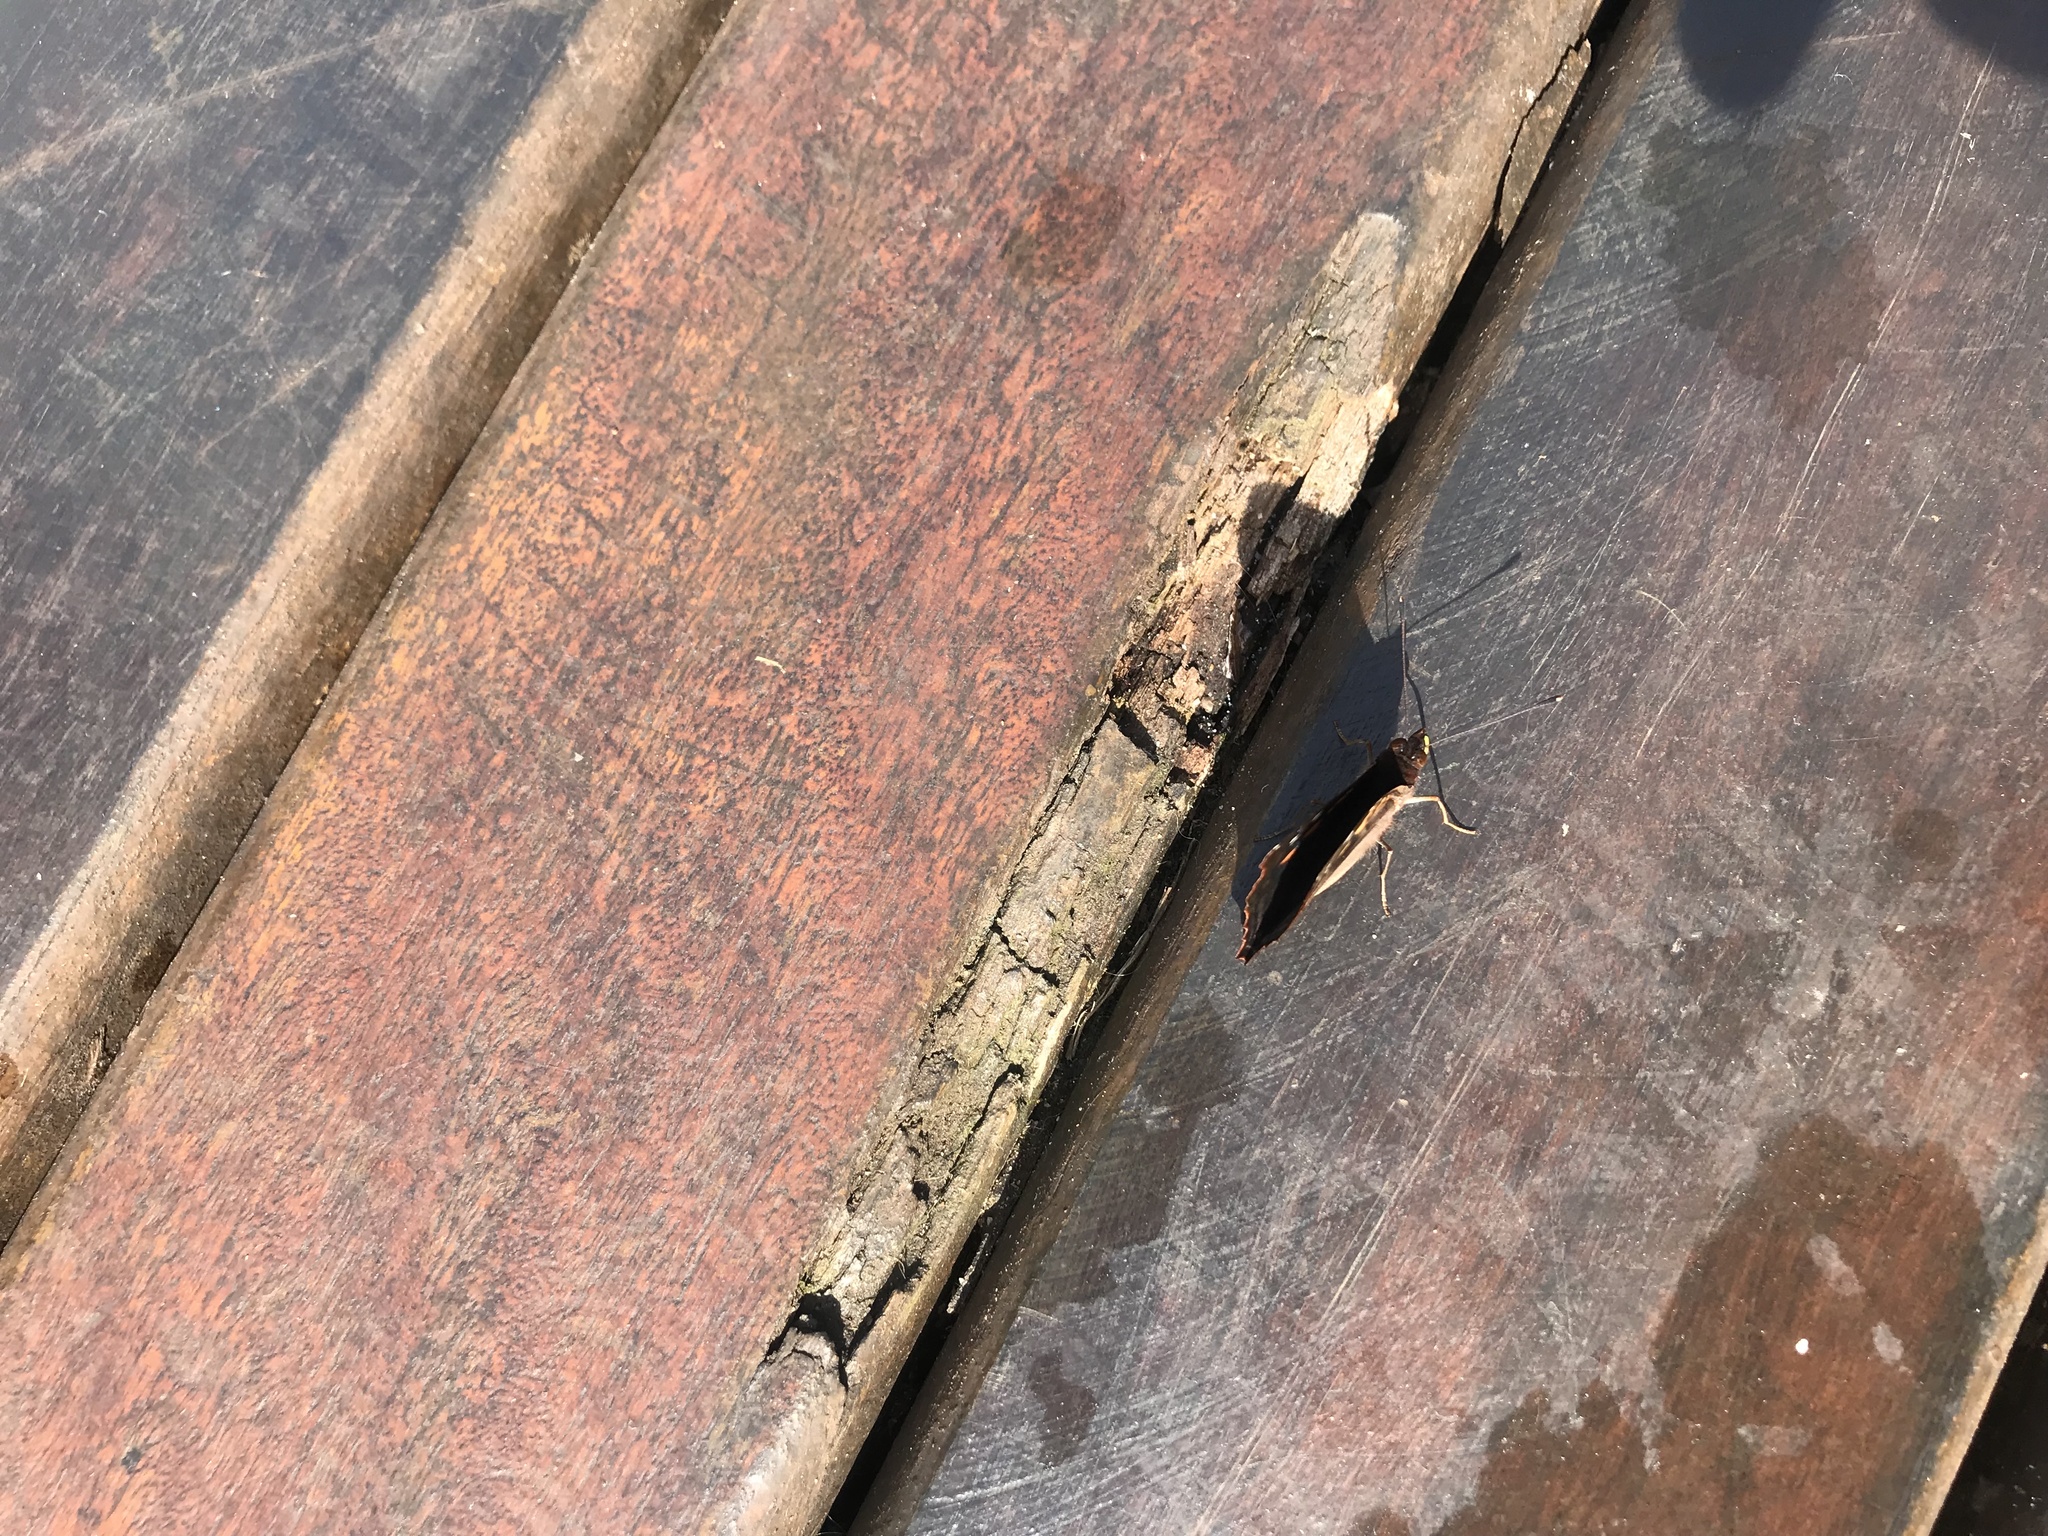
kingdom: Animalia
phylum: Arthropoda
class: Insecta
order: Lepidoptera
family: Nymphalidae
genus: Doxocopa
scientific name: Doxocopa agathina
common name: Agathina emperor
